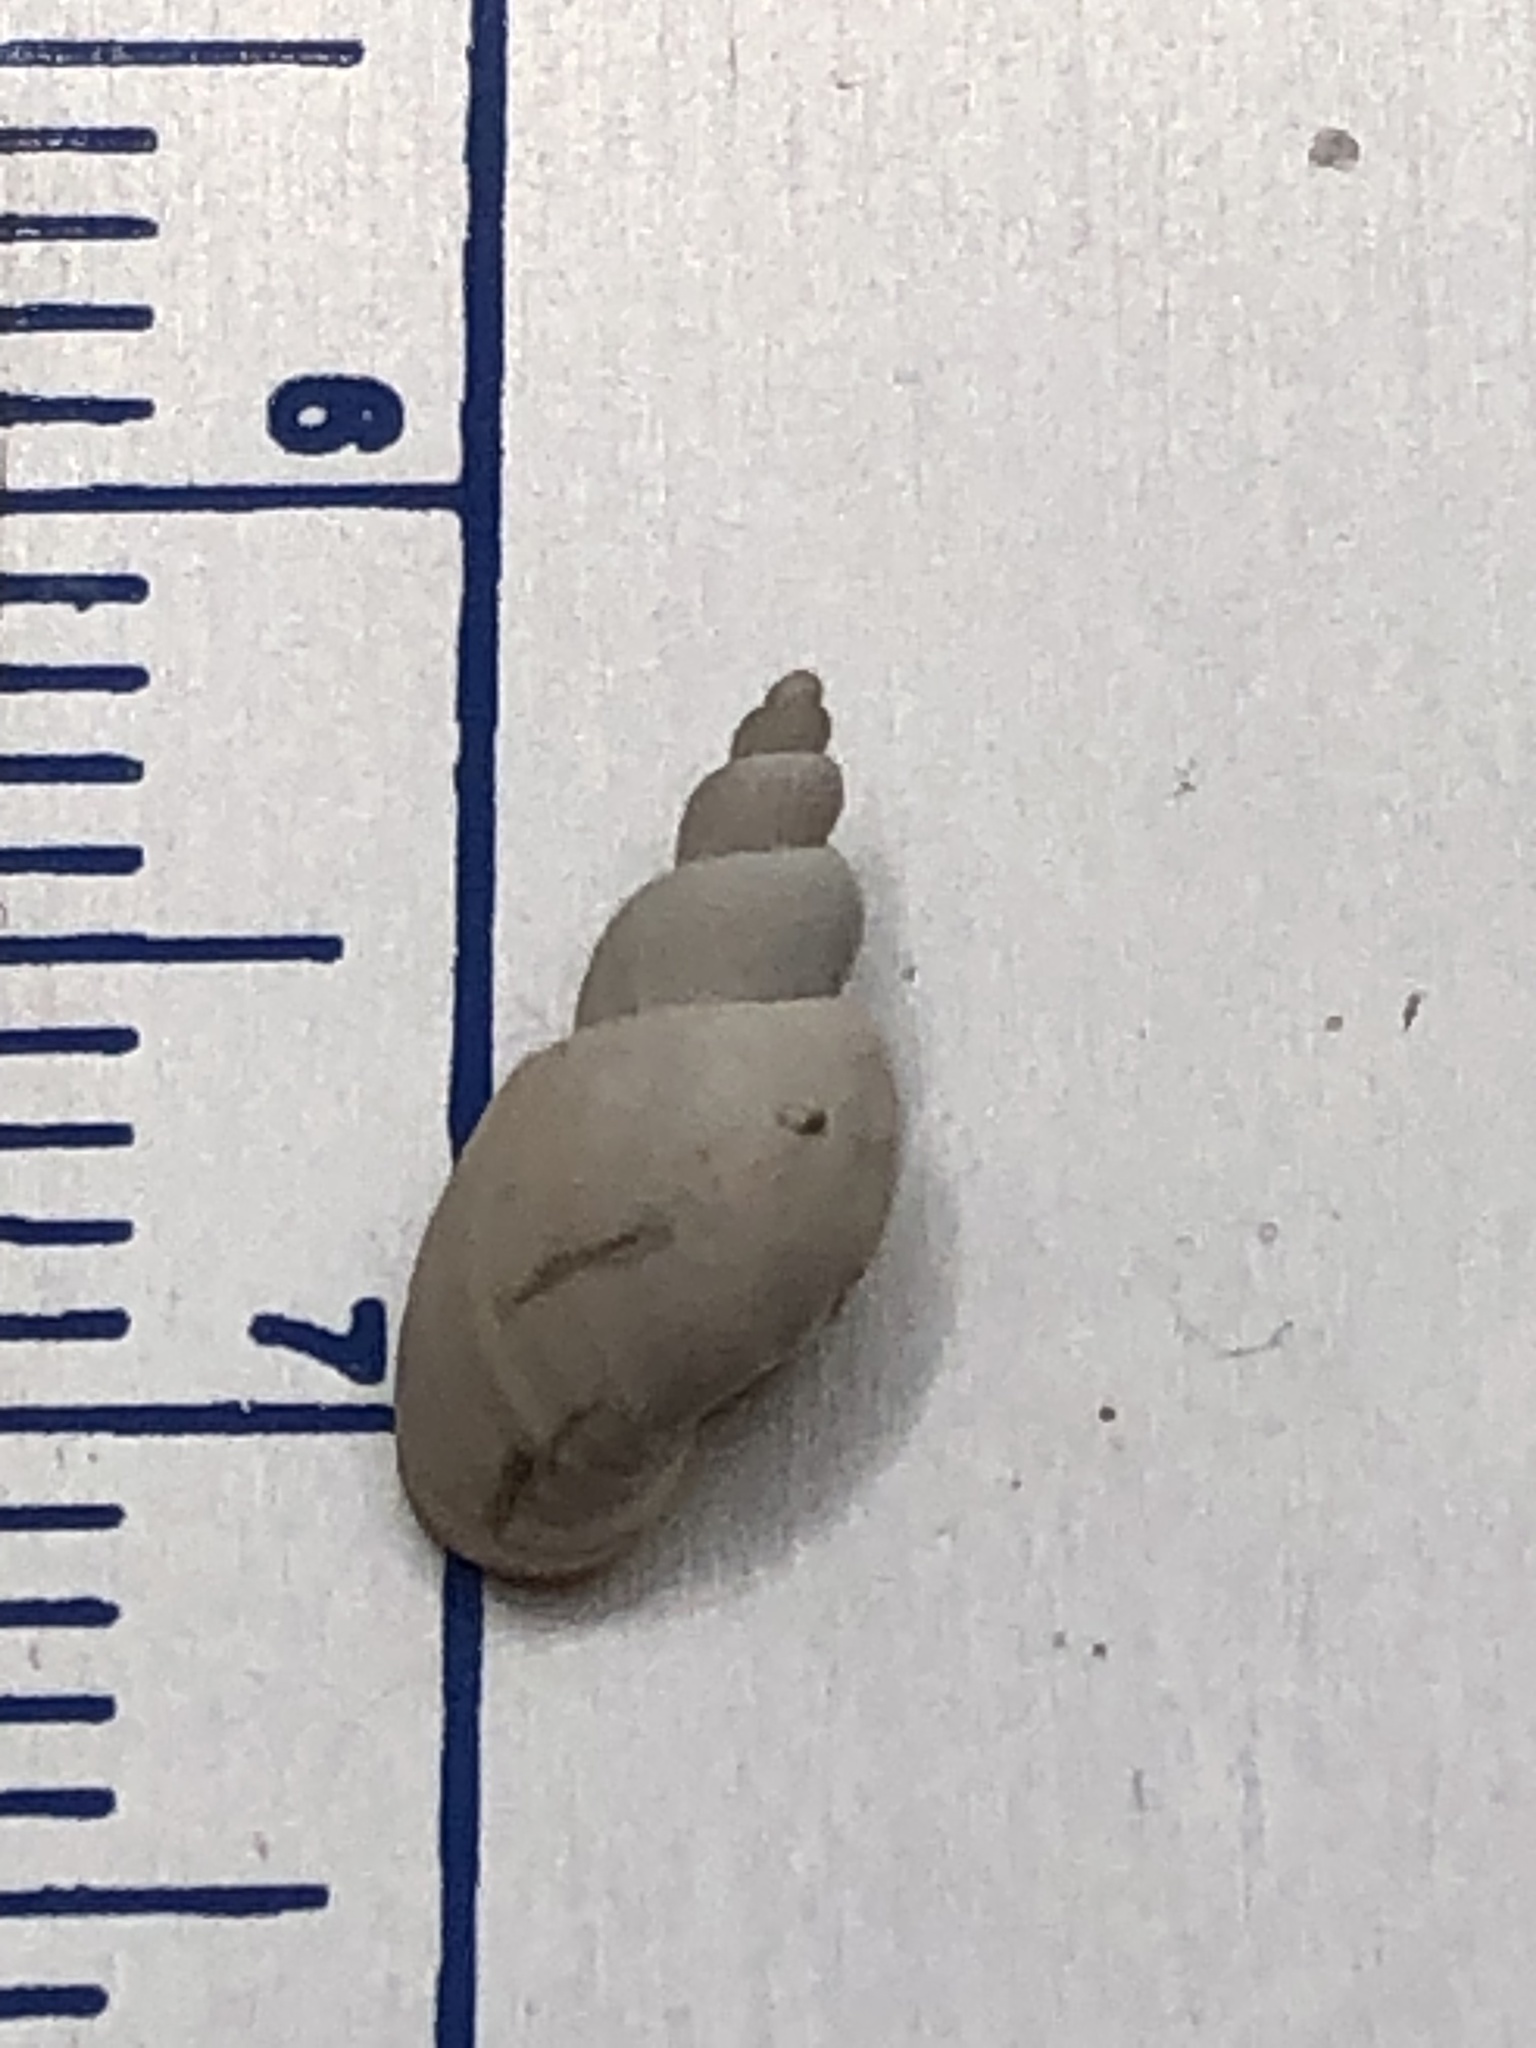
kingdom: Animalia
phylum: Mollusca
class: Gastropoda
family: Lymnaeidae
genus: Ladislavella
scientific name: Ladislavella elodes
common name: Marsh pondsnail
